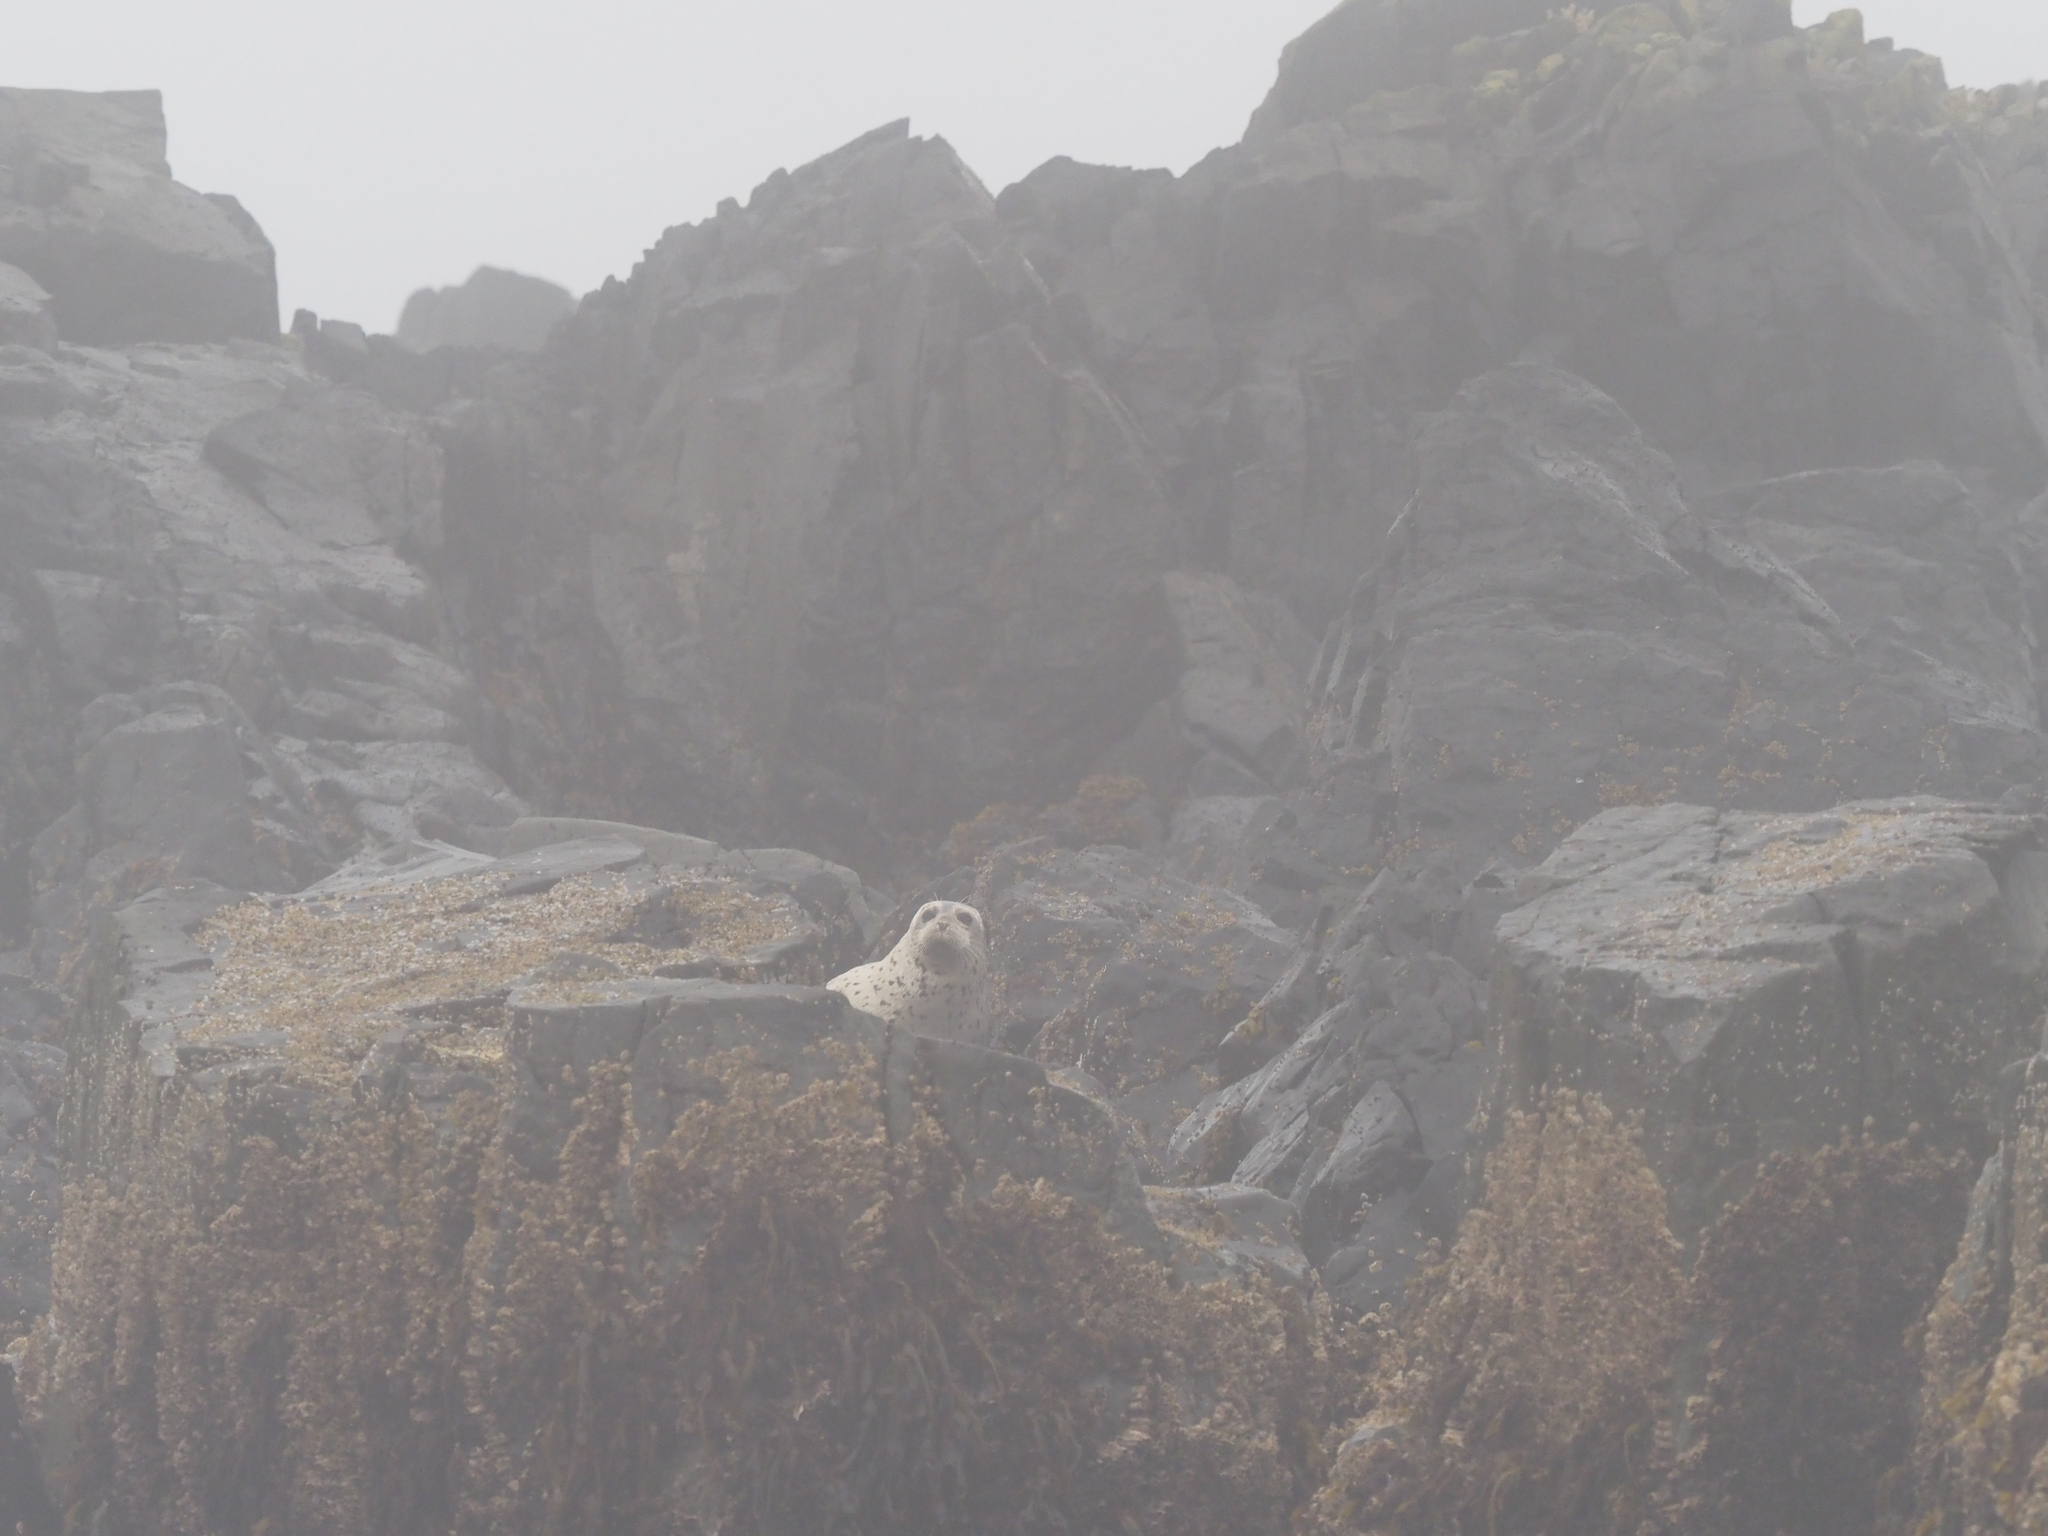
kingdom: Animalia
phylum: Chordata
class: Mammalia
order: Carnivora
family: Phocidae
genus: Phoca
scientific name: Phoca vitulina
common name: Harbor seal
